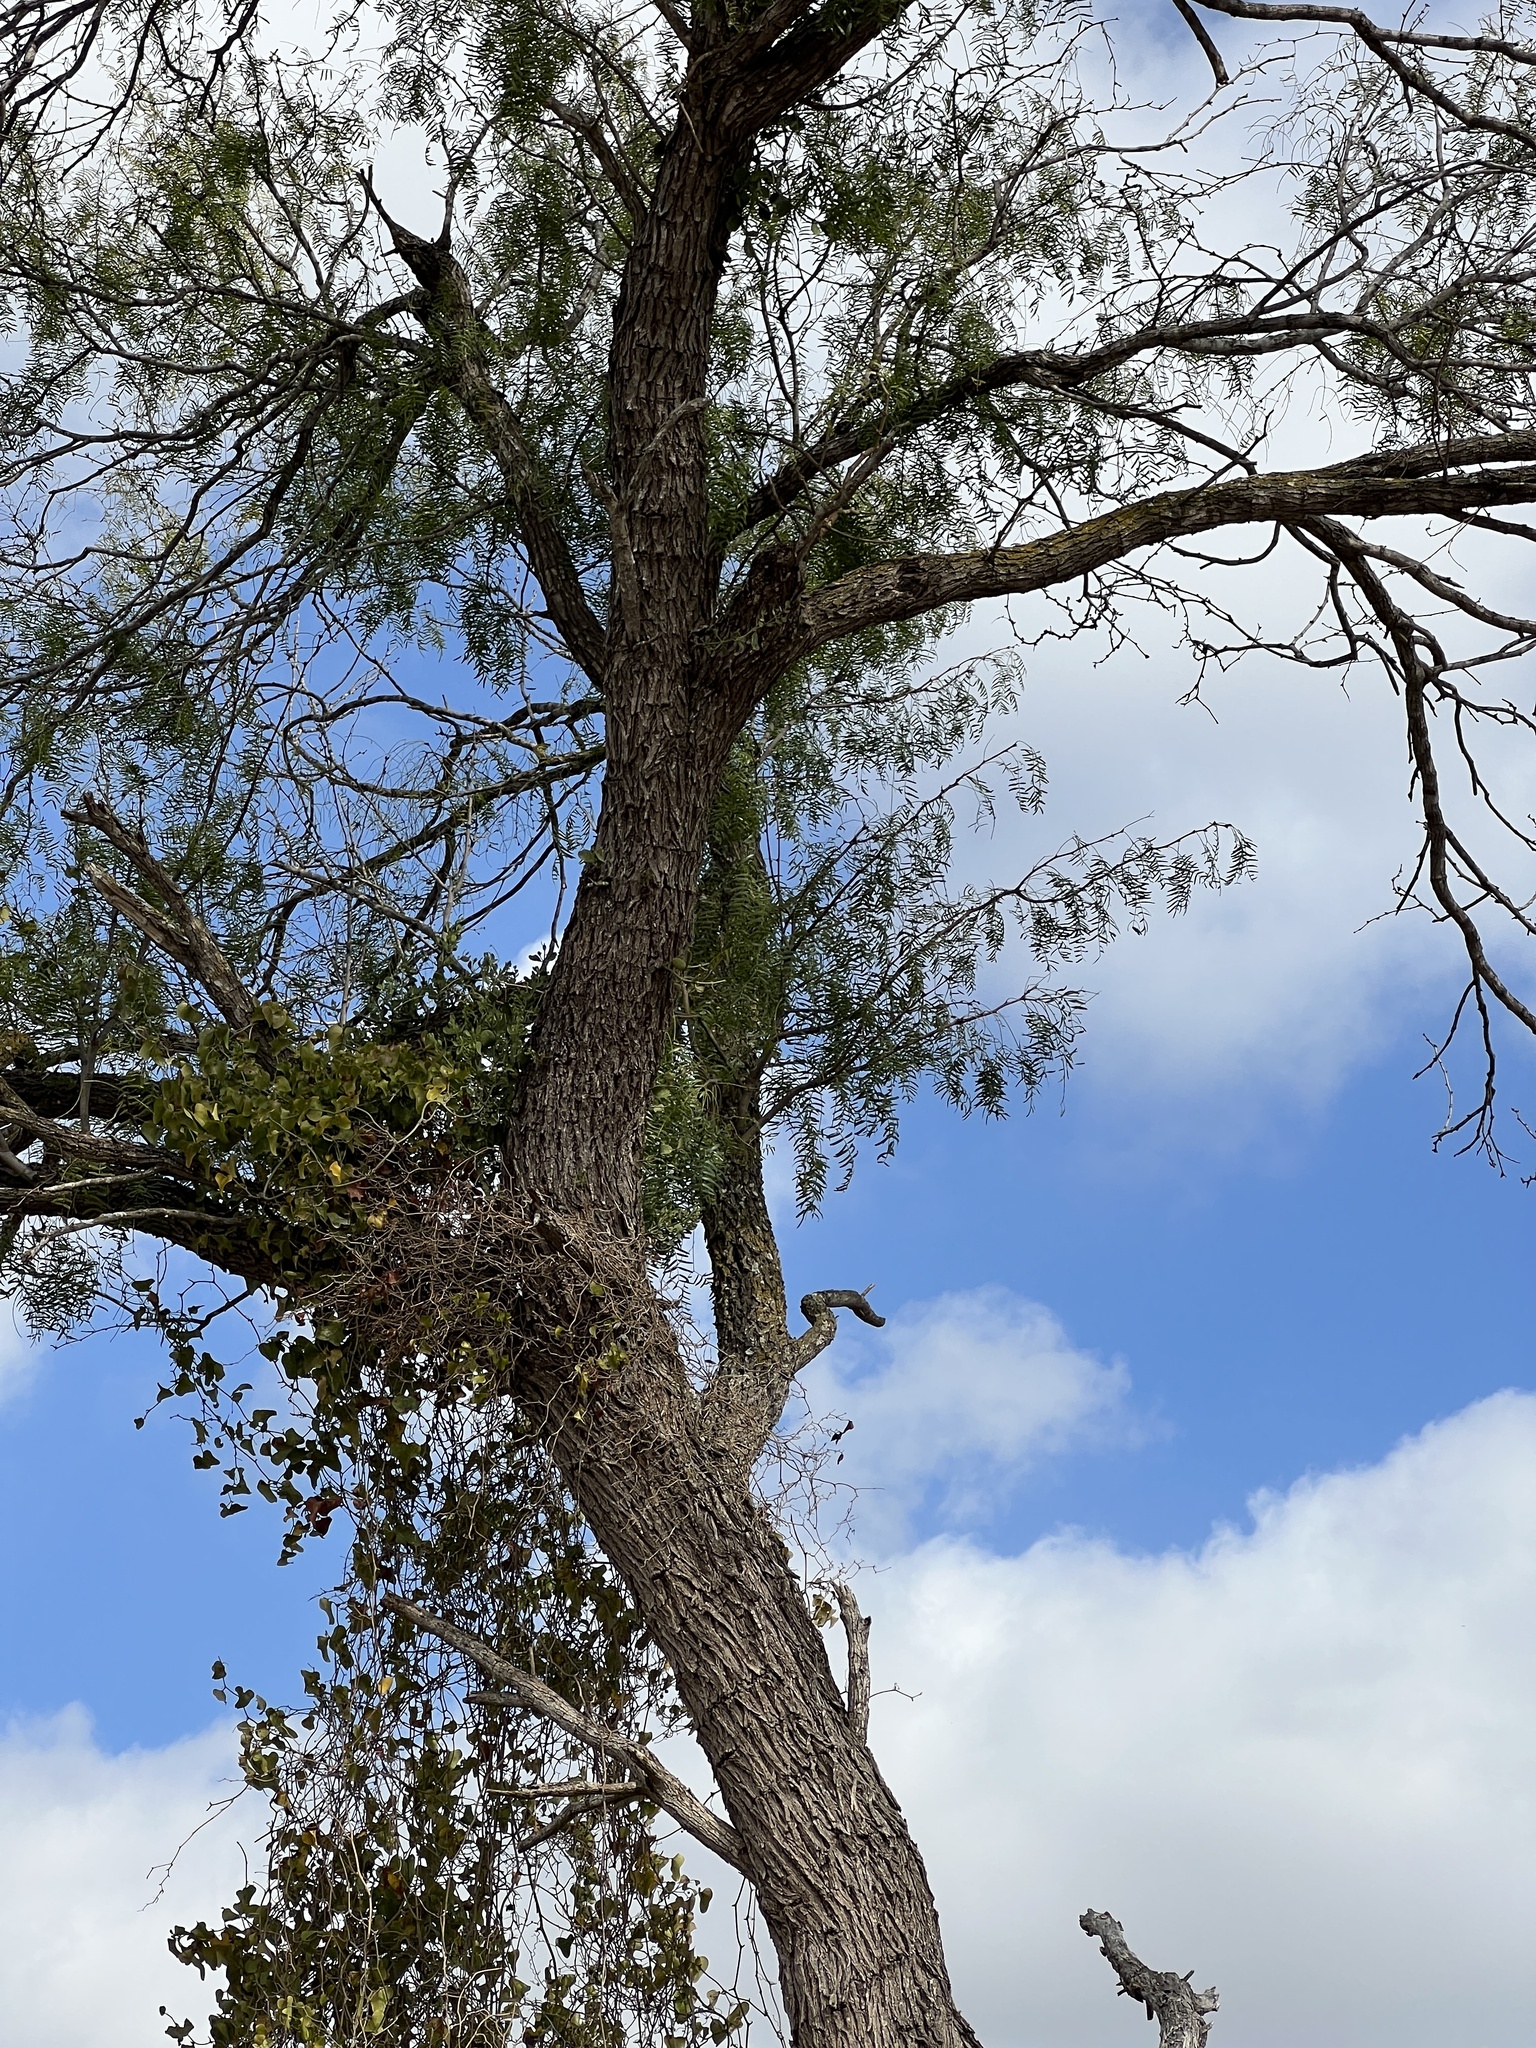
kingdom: Plantae
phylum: Tracheophyta
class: Magnoliopsida
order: Fabales
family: Fabaceae
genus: Prosopis
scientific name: Prosopis glandulosa
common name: Honey mesquite
